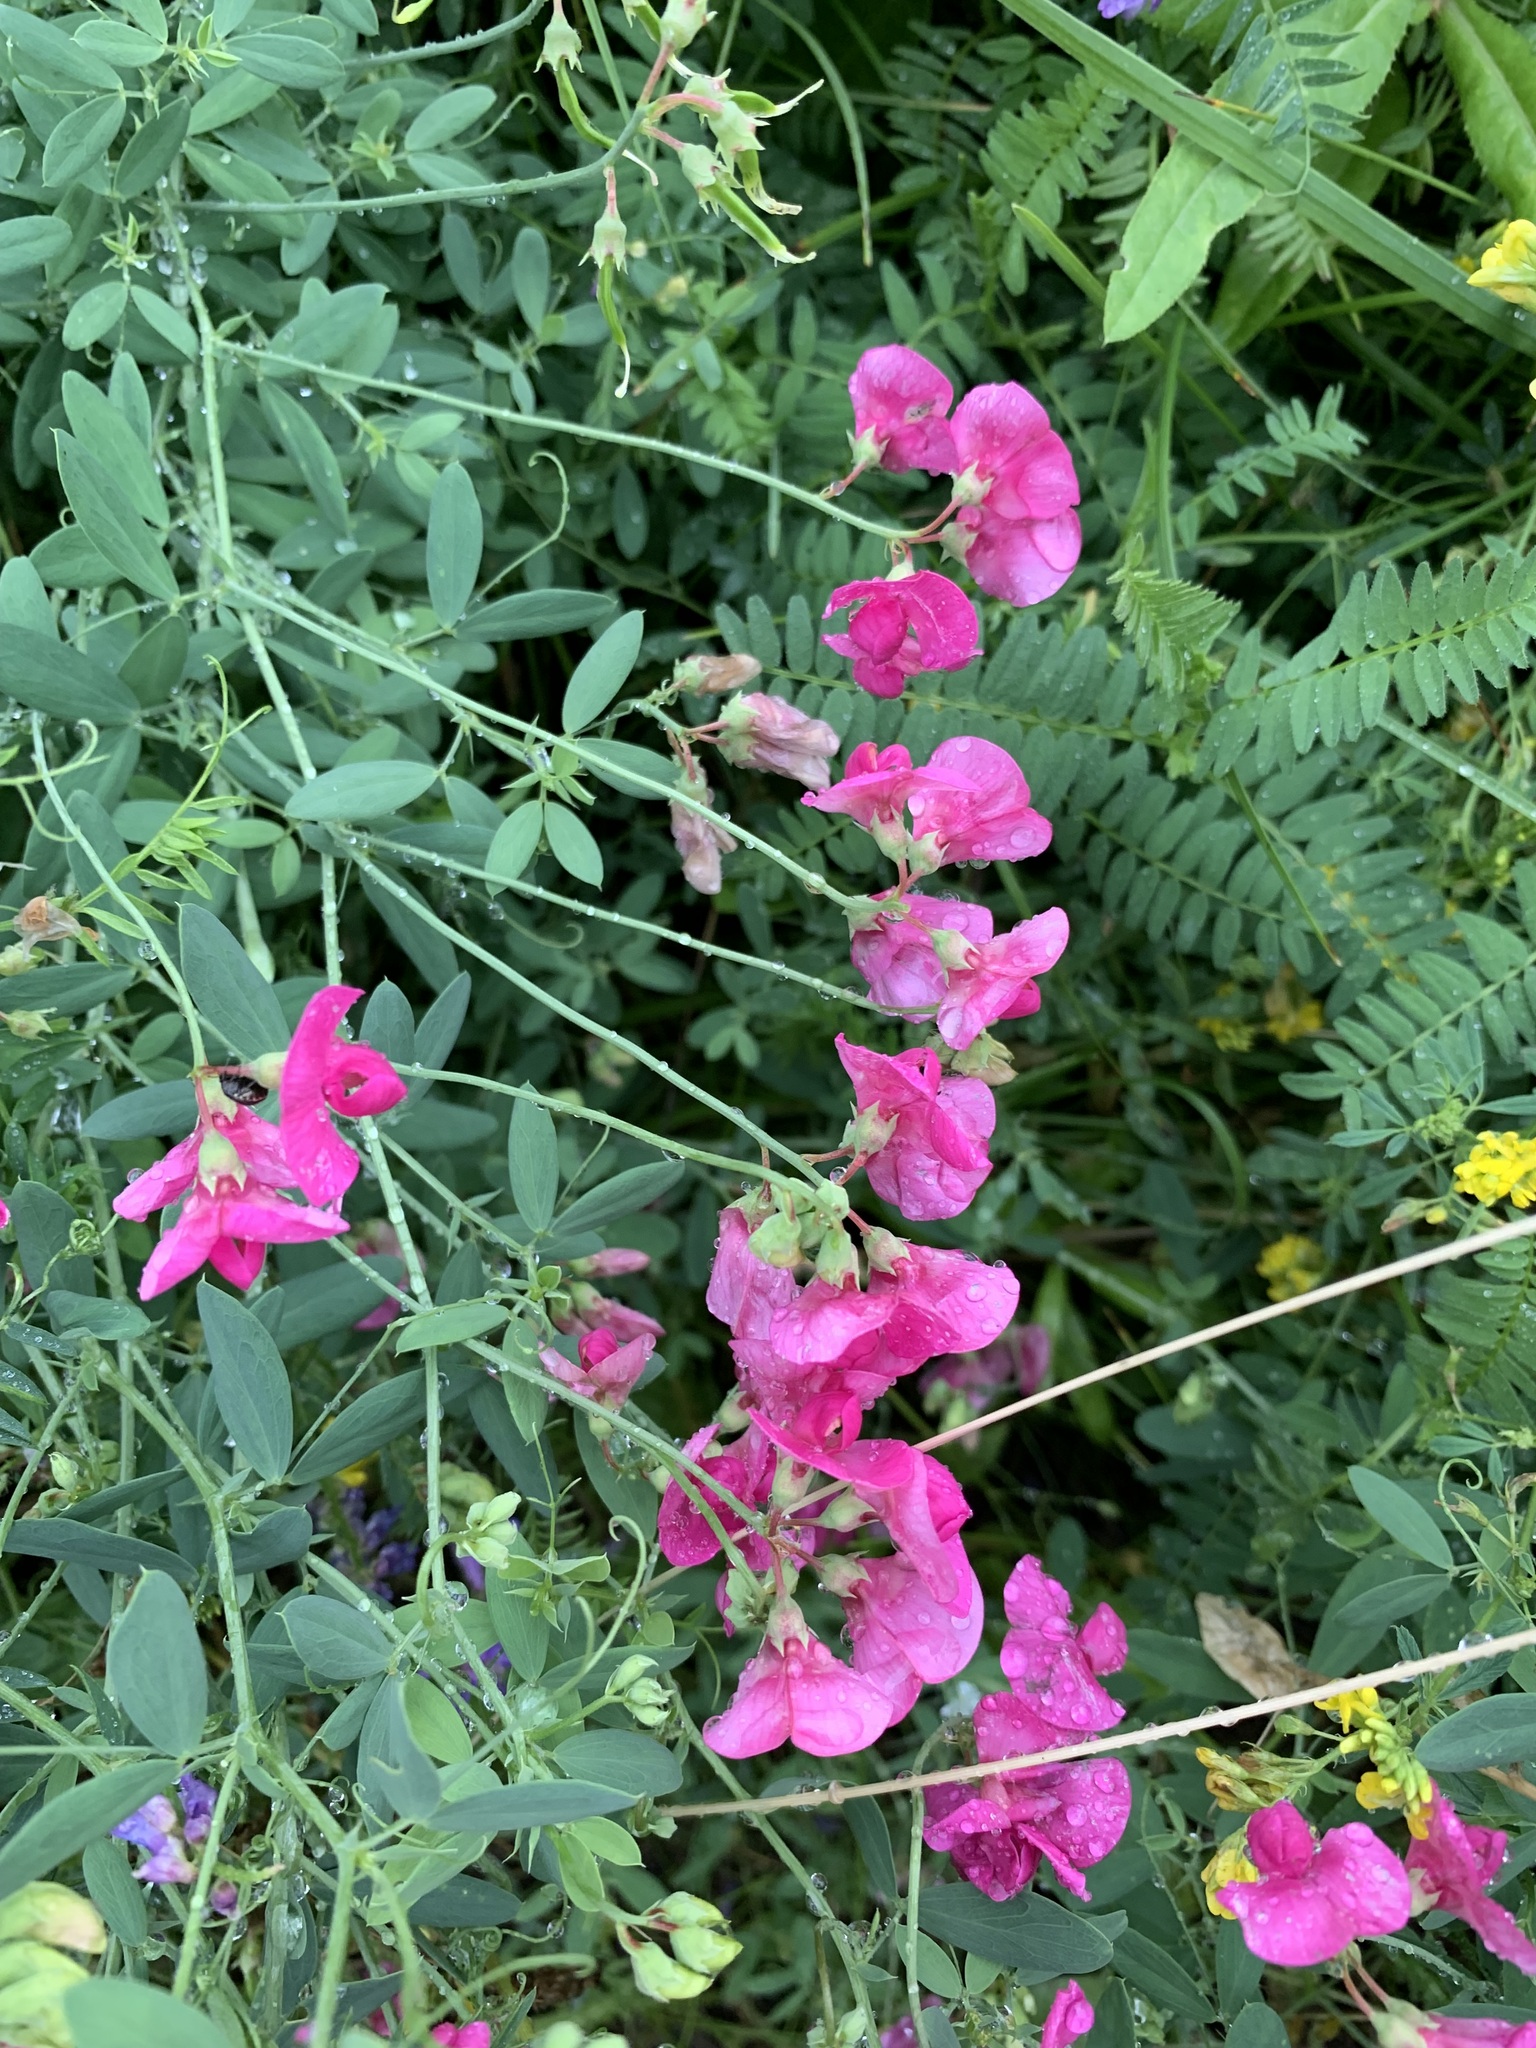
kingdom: Plantae
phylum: Tracheophyta
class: Magnoliopsida
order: Fabales
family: Fabaceae
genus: Lathyrus
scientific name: Lathyrus tuberosus
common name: Tuberous pea
